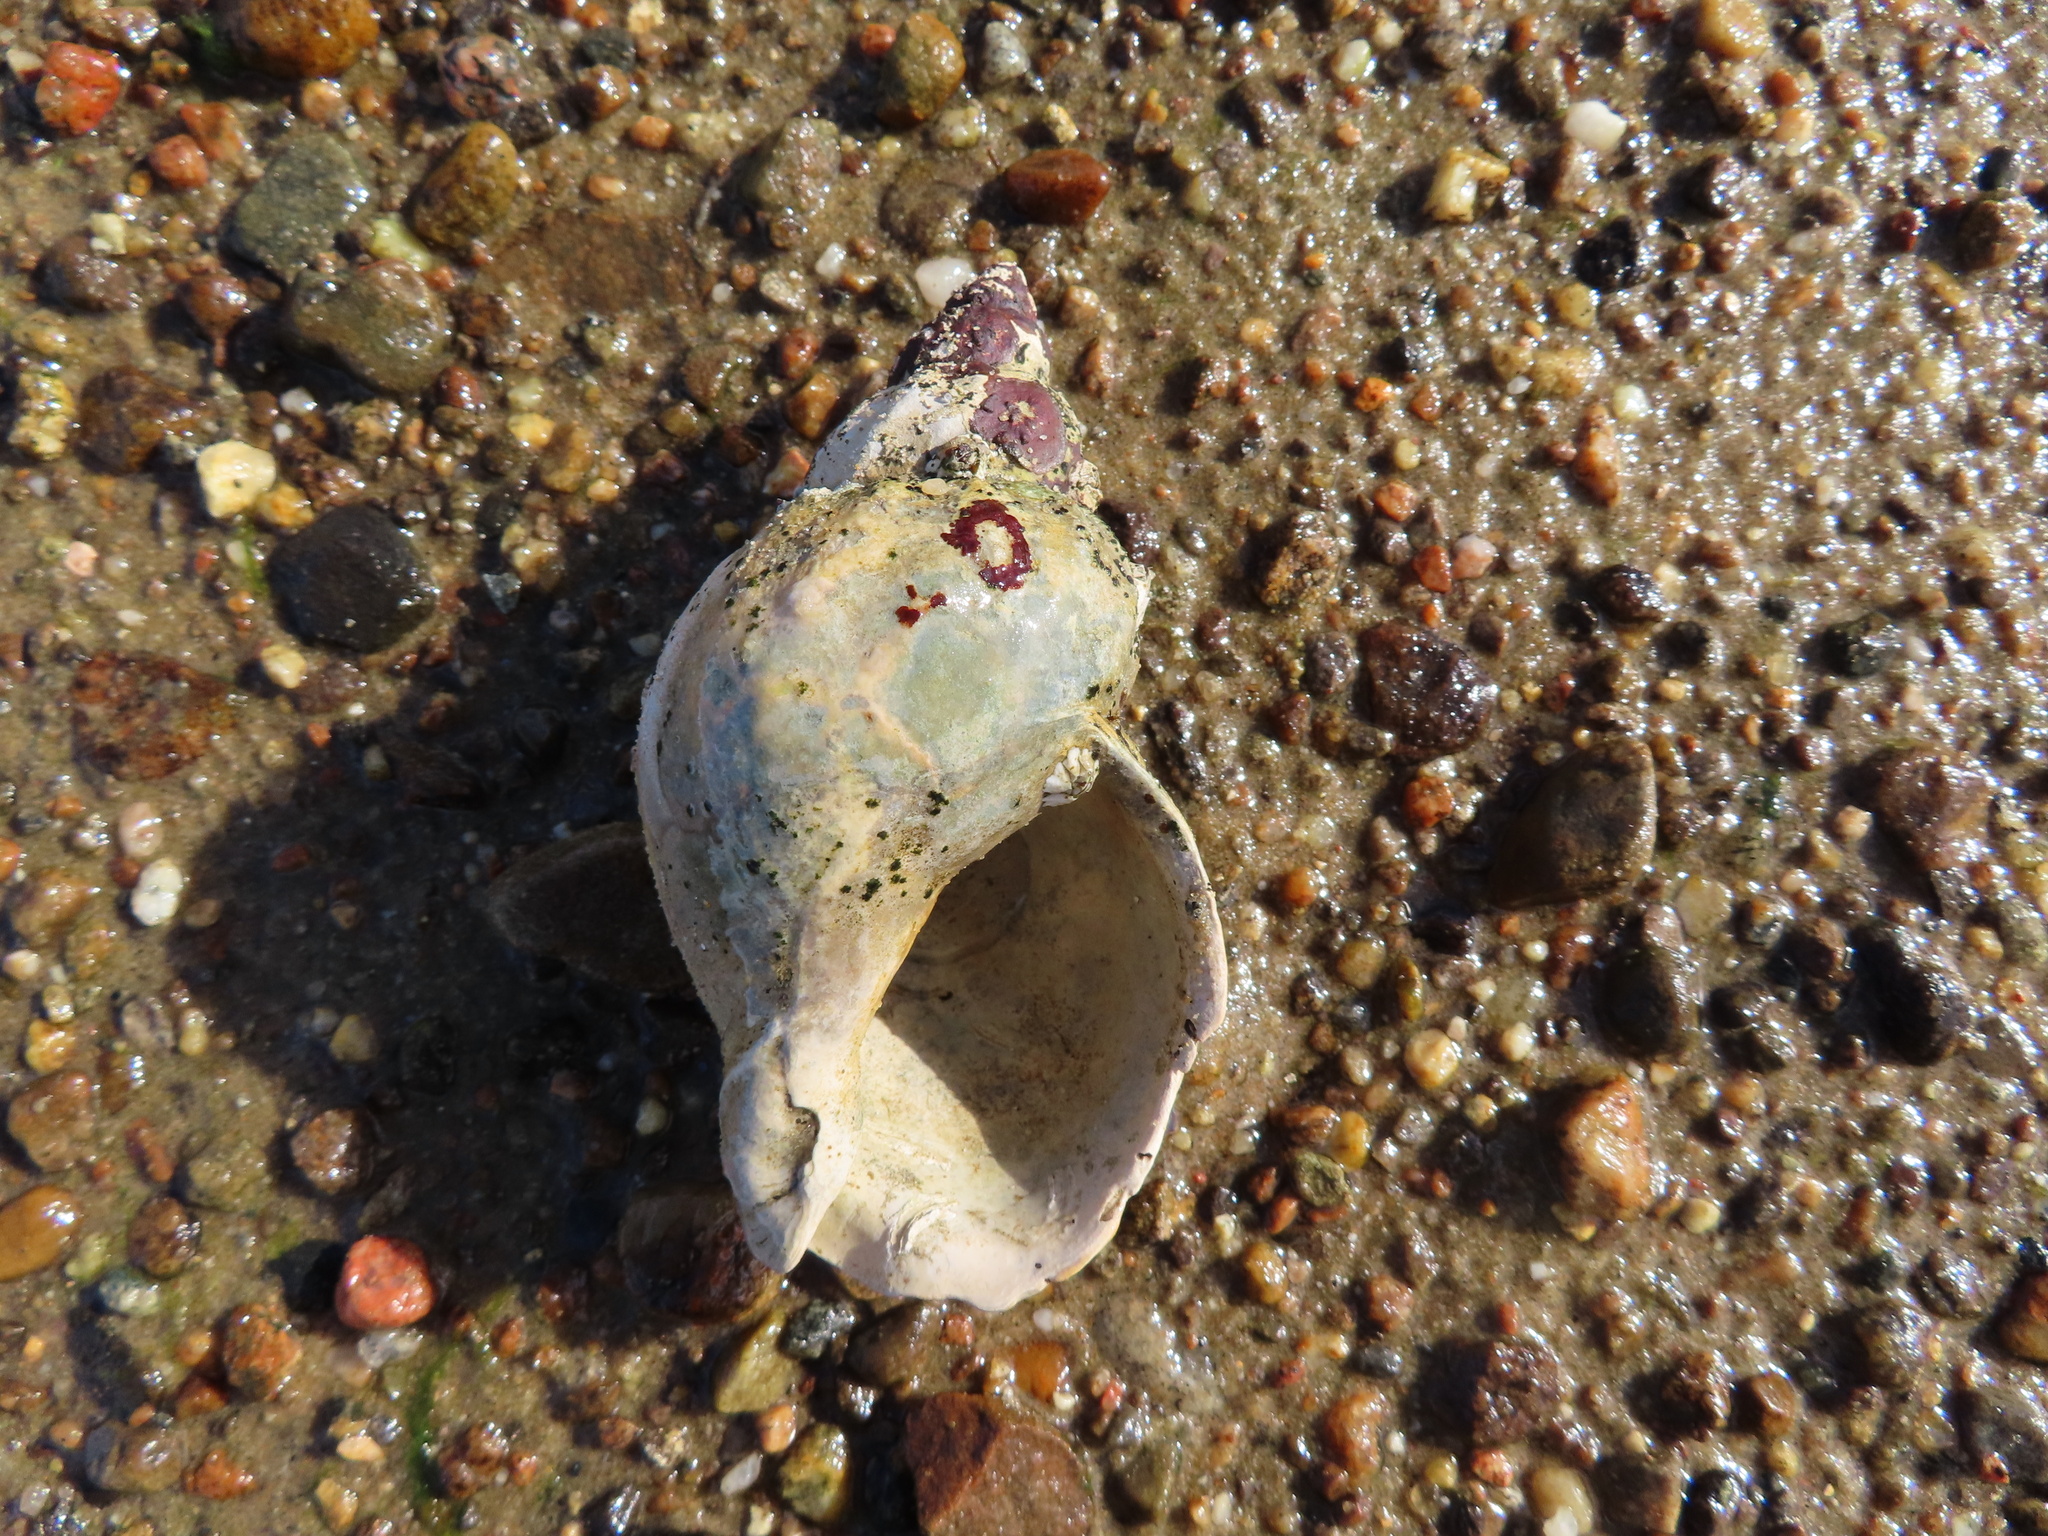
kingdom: Animalia
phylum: Mollusca
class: Gastropoda
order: Neogastropoda
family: Buccinidae
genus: Buccinum
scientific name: Buccinum undatum
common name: Common whelk
